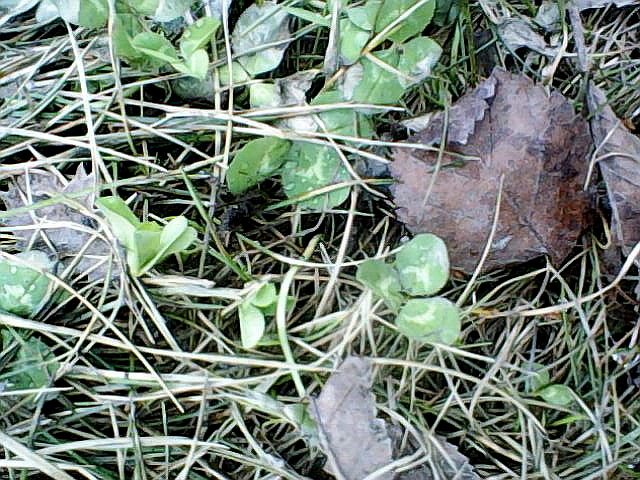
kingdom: Plantae
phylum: Tracheophyta
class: Magnoliopsida
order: Fabales
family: Fabaceae
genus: Trifolium
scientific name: Trifolium repens
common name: White clover
